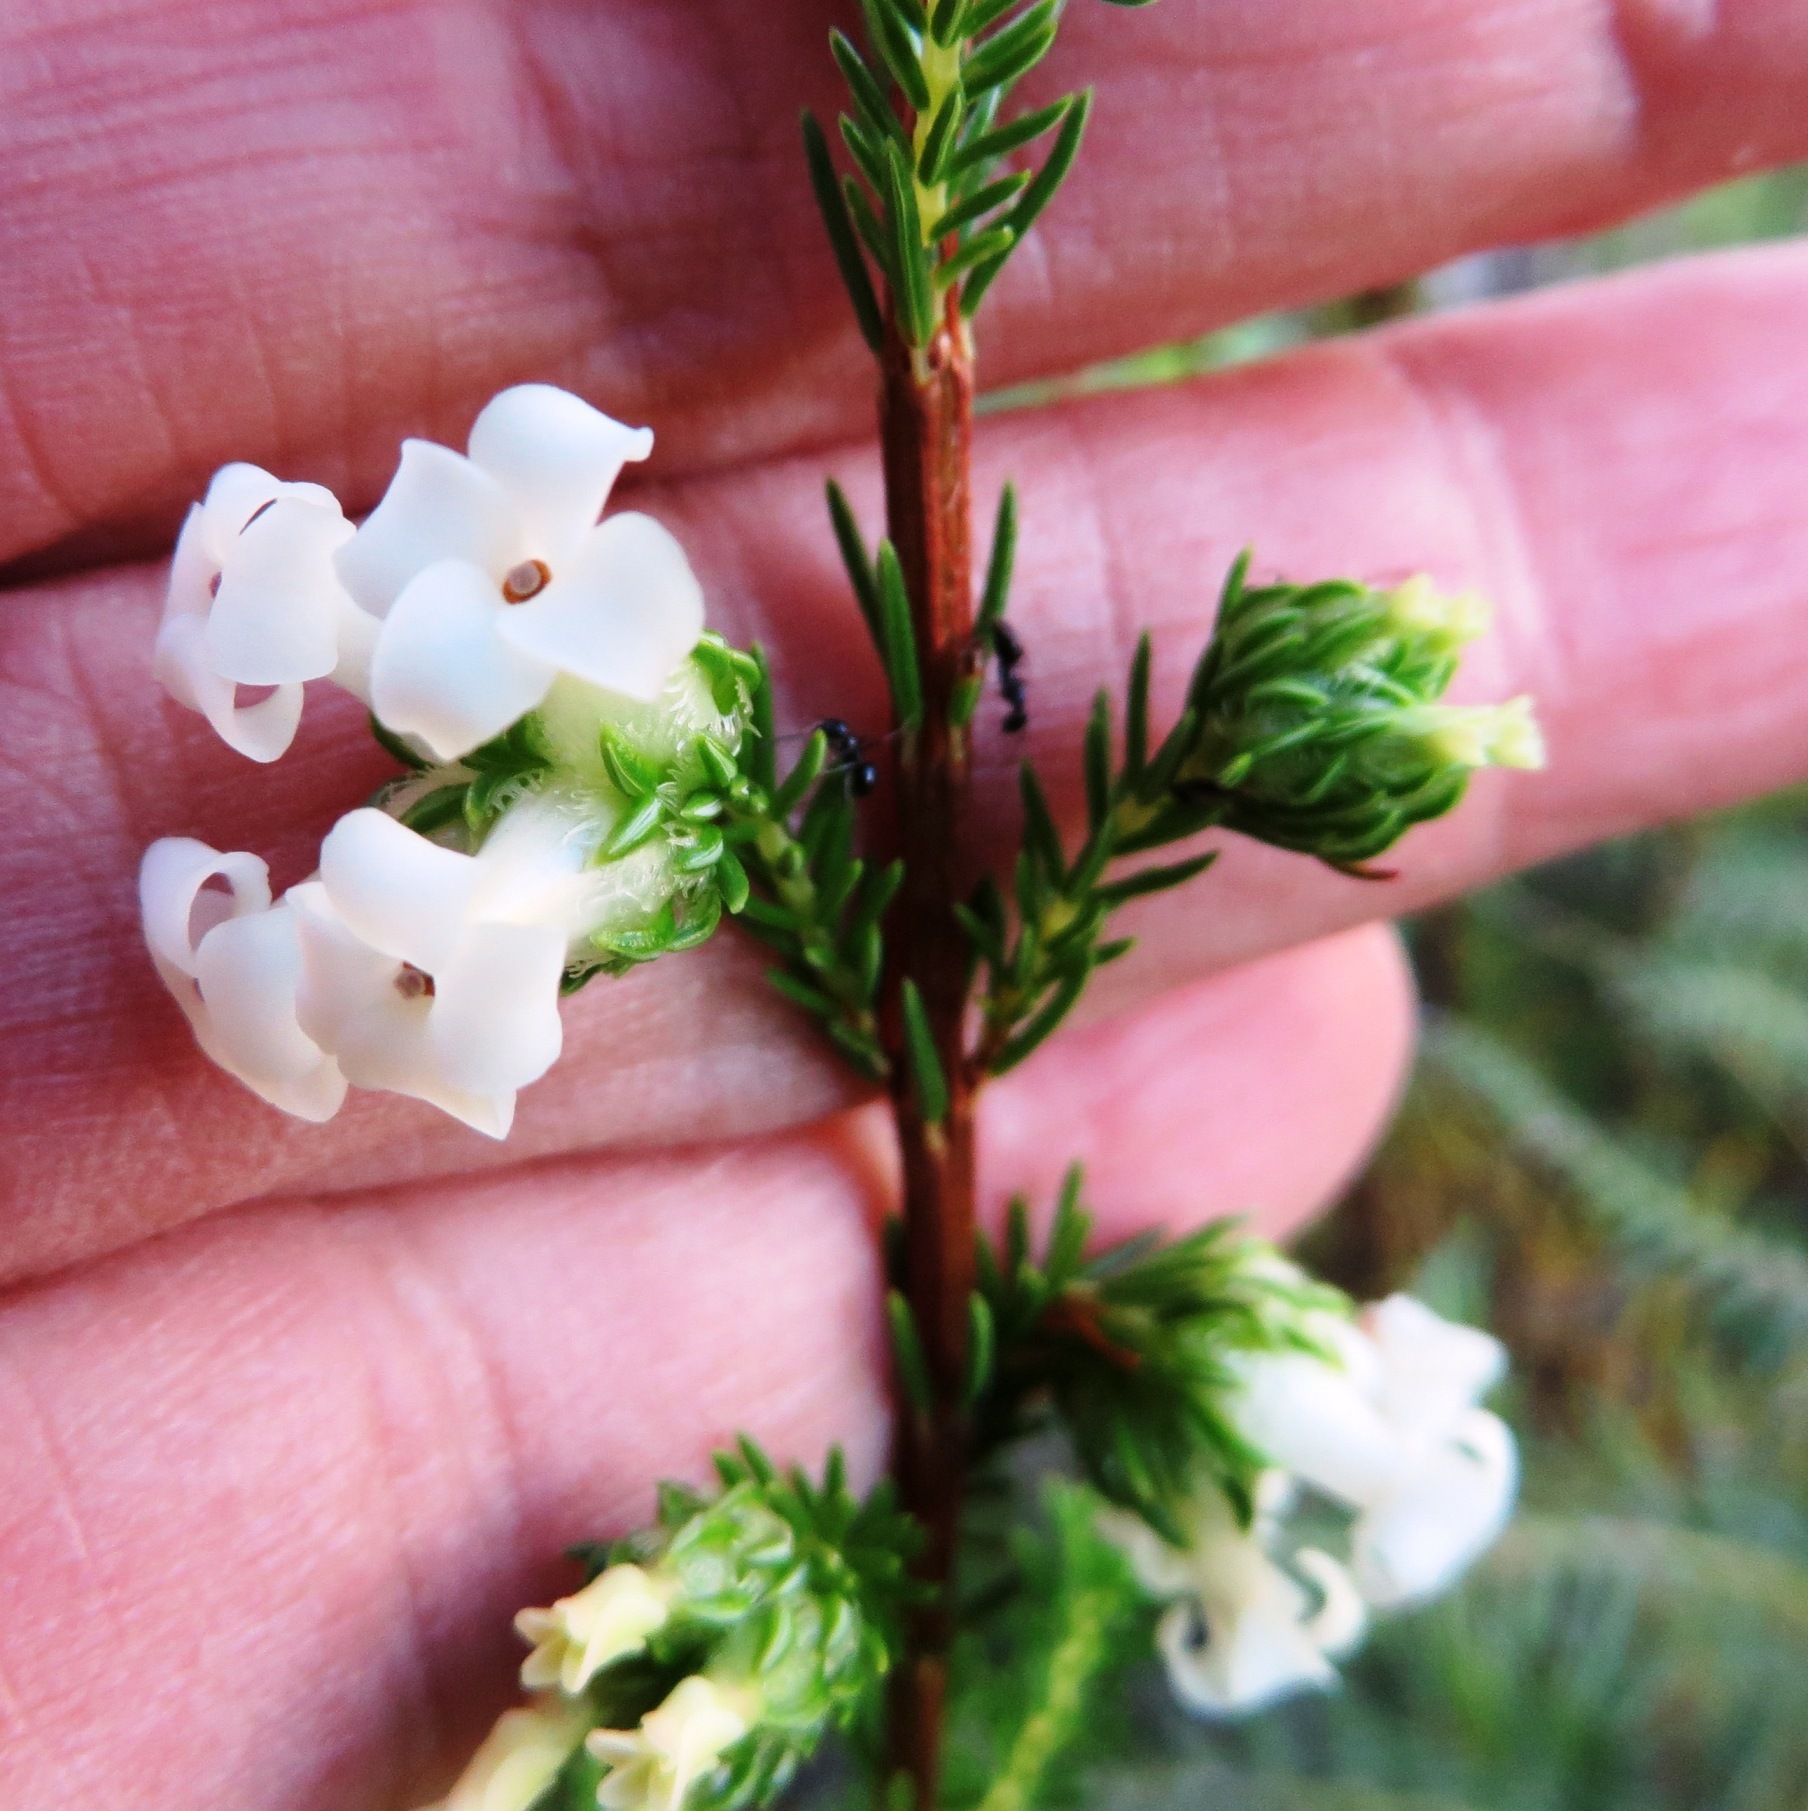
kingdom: Plantae
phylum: Tracheophyta
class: Magnoliopsida
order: Ericales
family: Ericaceae
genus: Erica
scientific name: Erica denticulata
